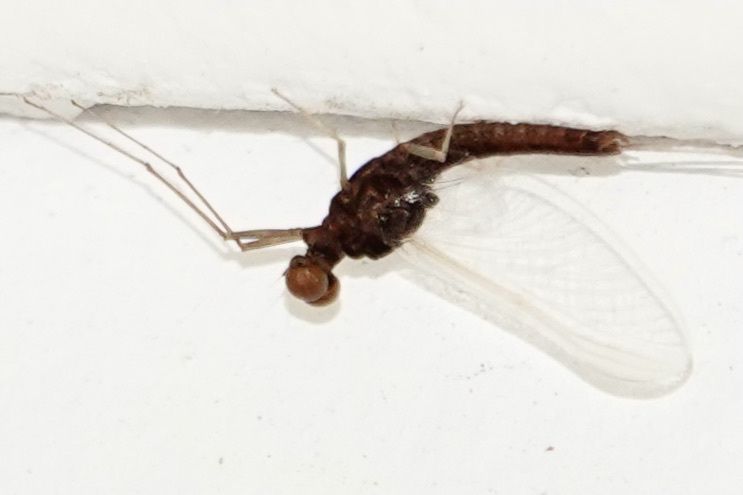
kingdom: Animalia
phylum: Arthropoda
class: Insecta
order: Ephemeroptera
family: Ephemerellidae
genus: Ephemerella
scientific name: Ephemerella subvaria
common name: Dark hendrickson
